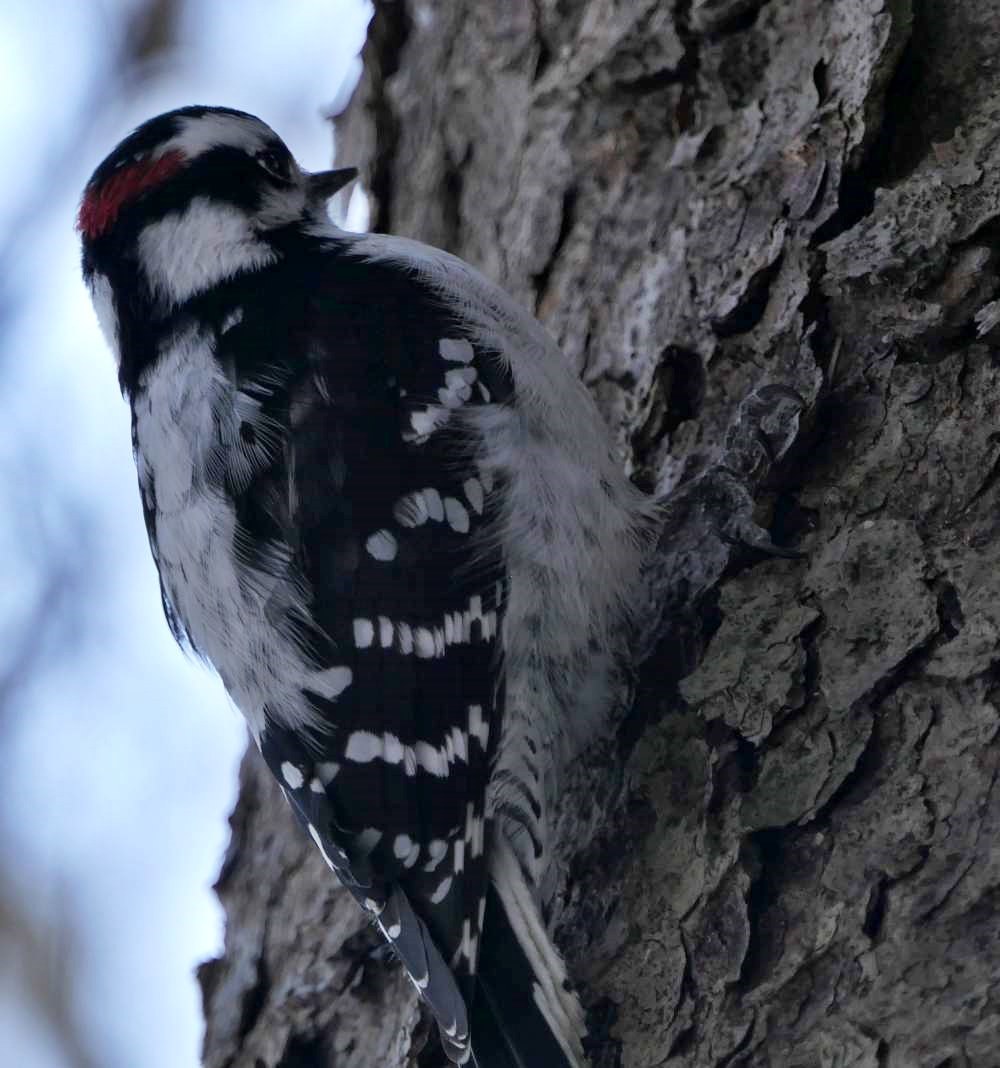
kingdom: Animalia
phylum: Chordata
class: Aves
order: Piciformes
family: Picidae
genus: Dryobates
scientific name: Dryobates pubescens
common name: Downy woodpecker
